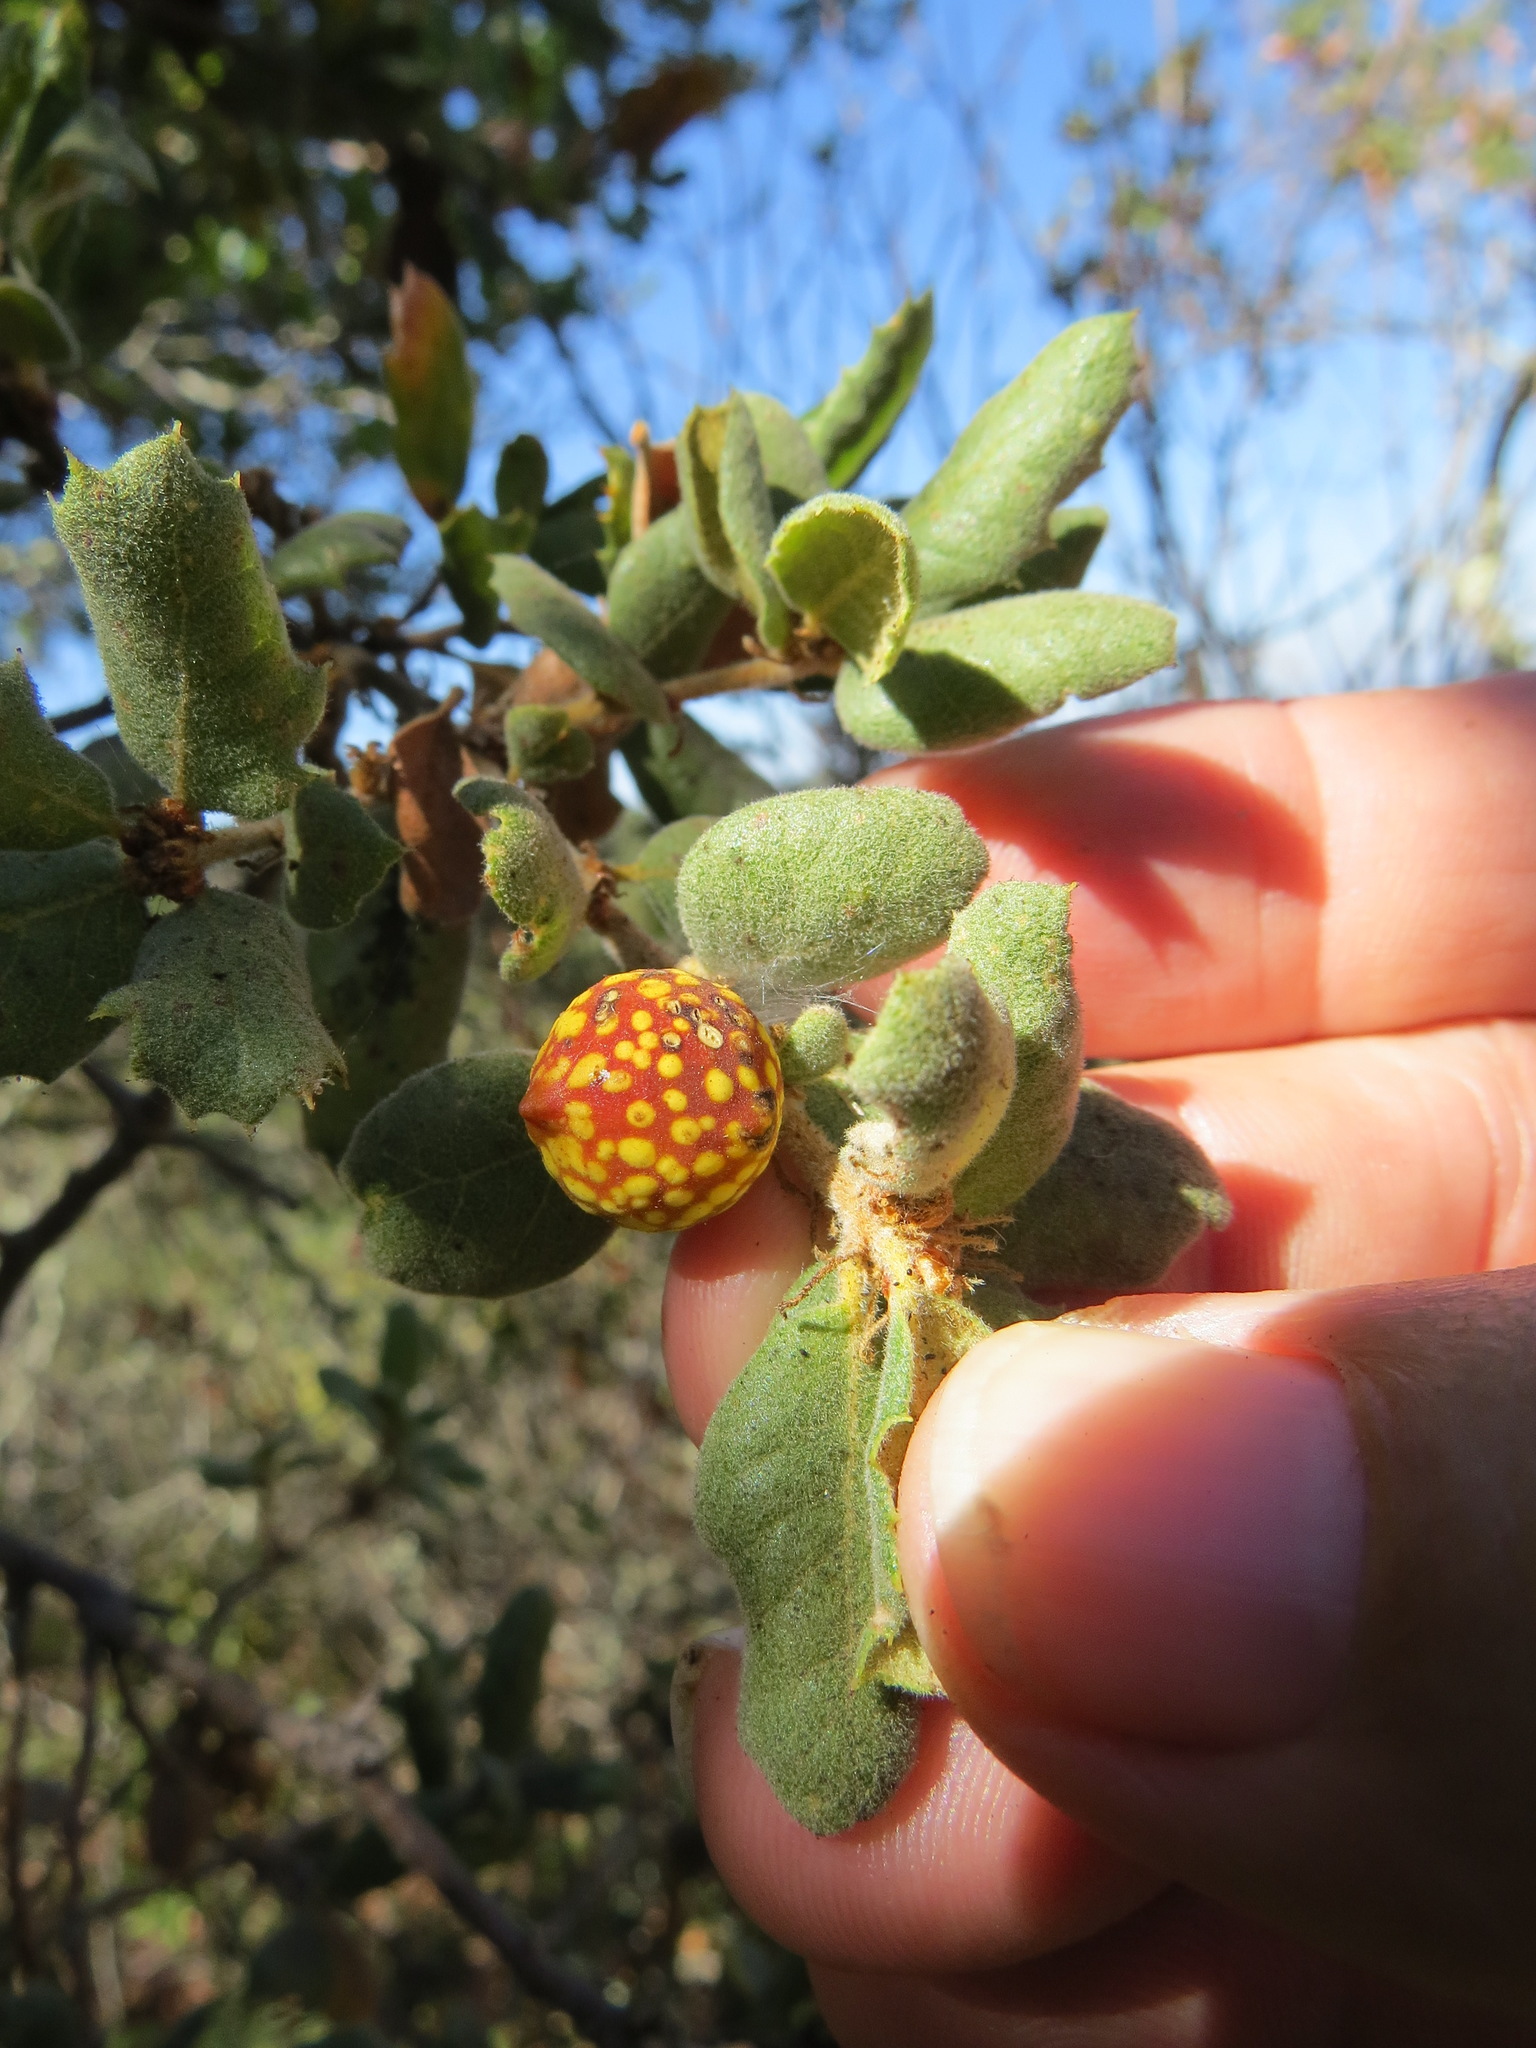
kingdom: Animalia
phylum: Arthropoda
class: Insecta
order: Hymenoptera
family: Cynipidae
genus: Burnettweldia
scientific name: Burnettweldia
